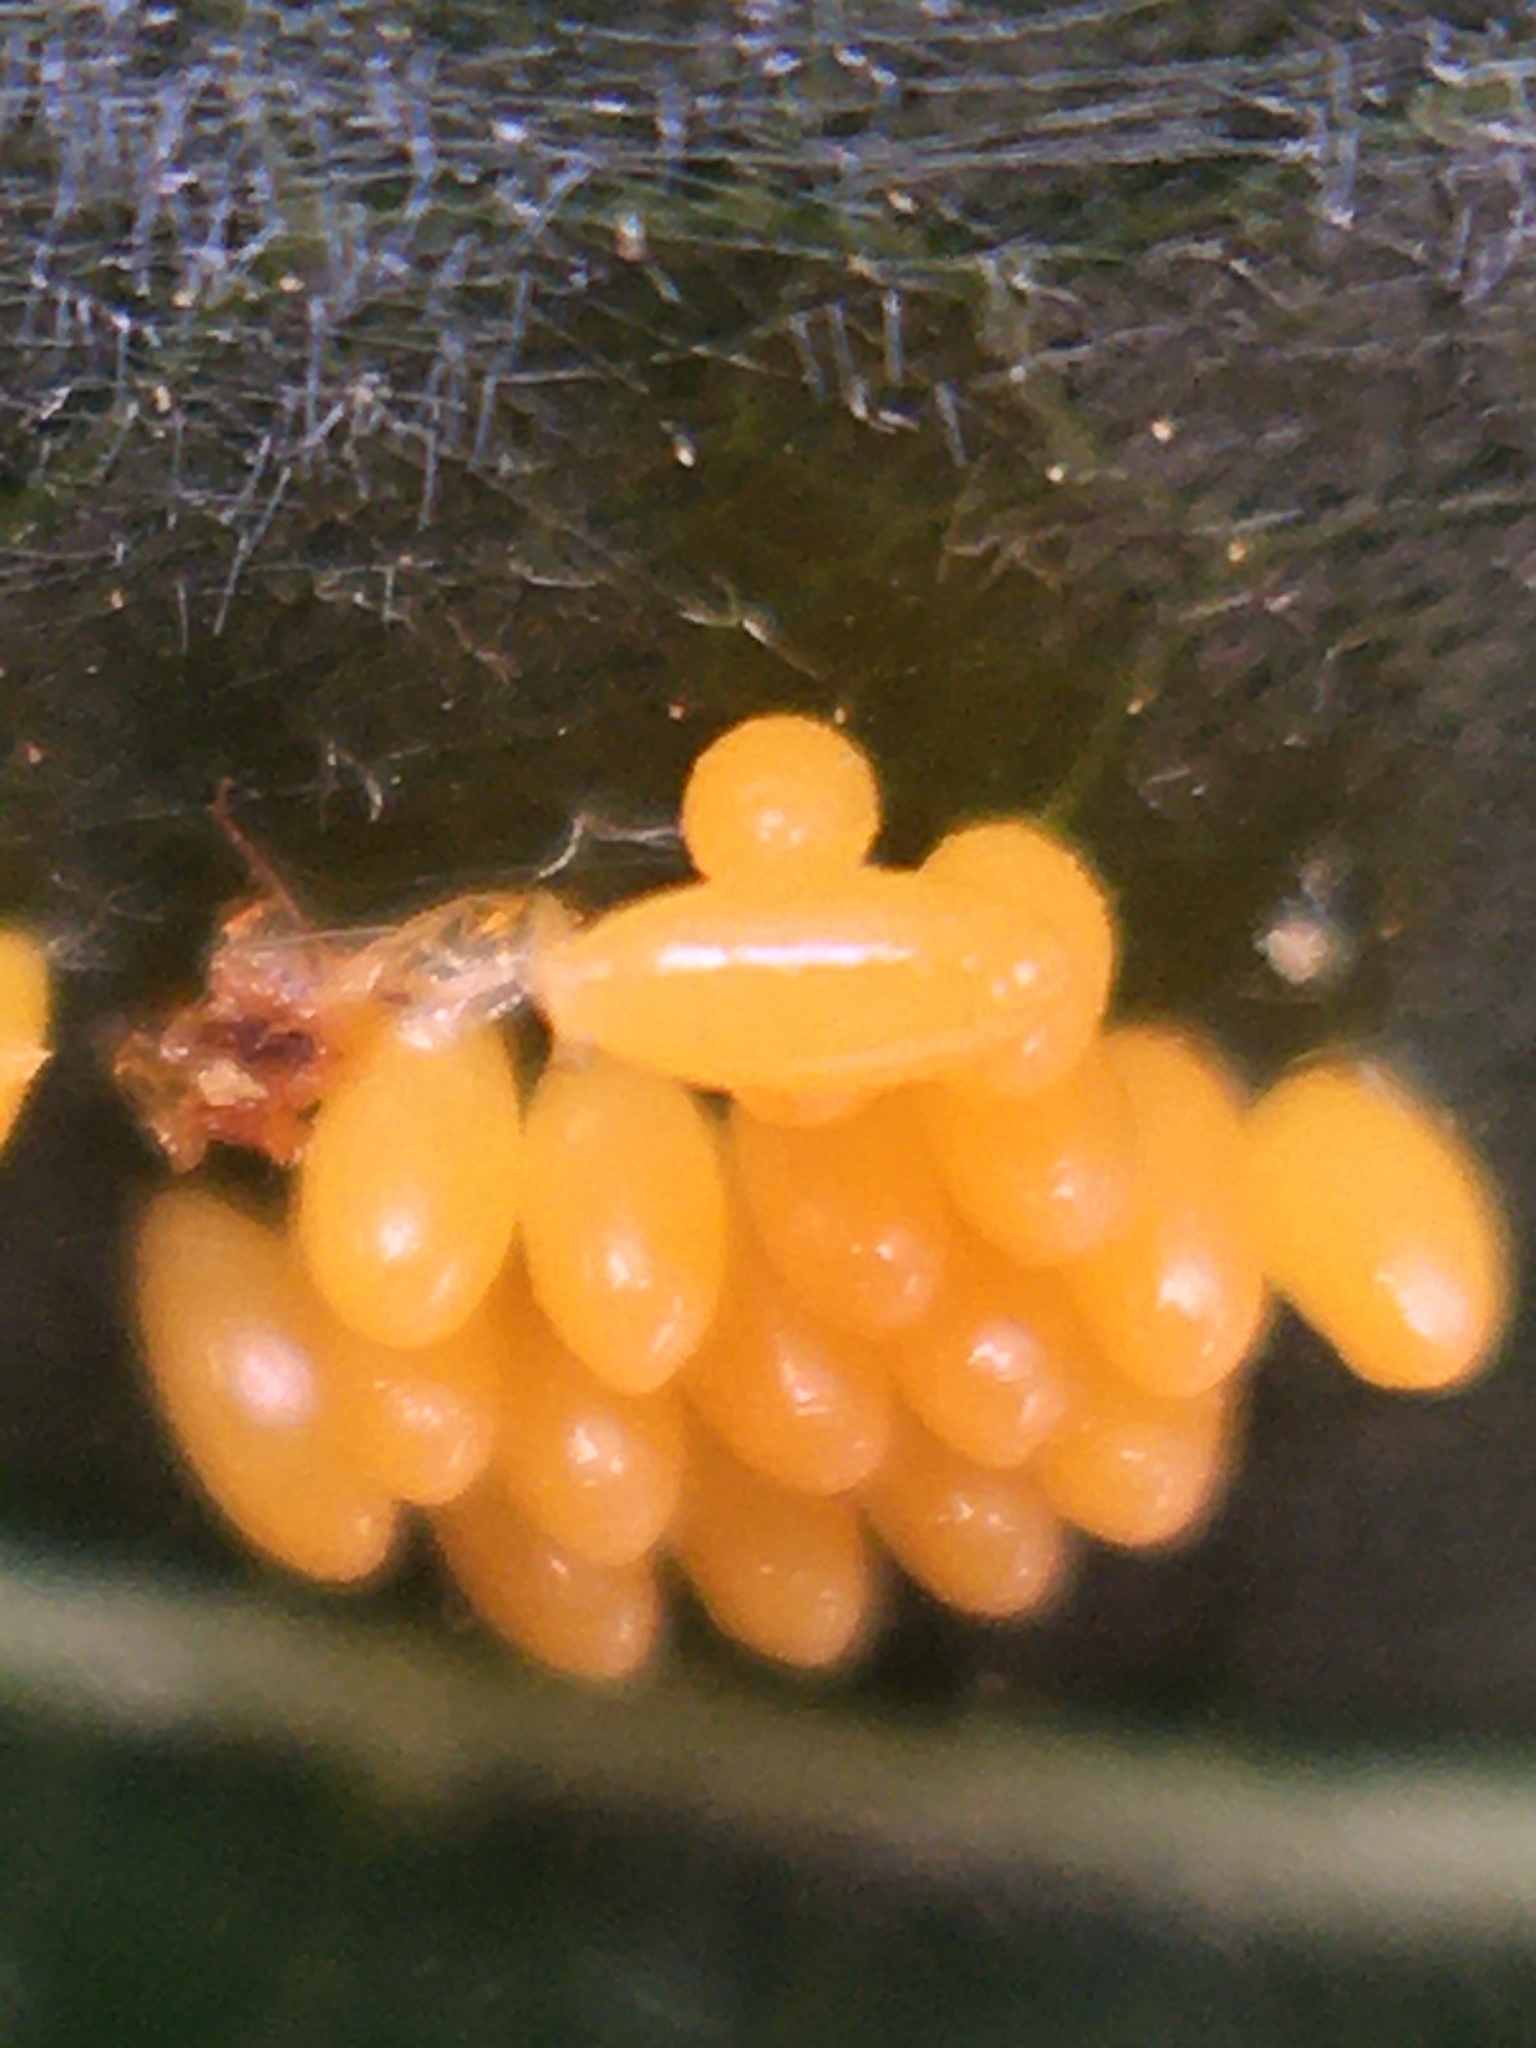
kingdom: Animalia
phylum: Arthropoda
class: Insecta
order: Coleoptera
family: Coccinellidae
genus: Harmonia
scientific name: Harmonia axyridis
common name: Harlequin ladybird
